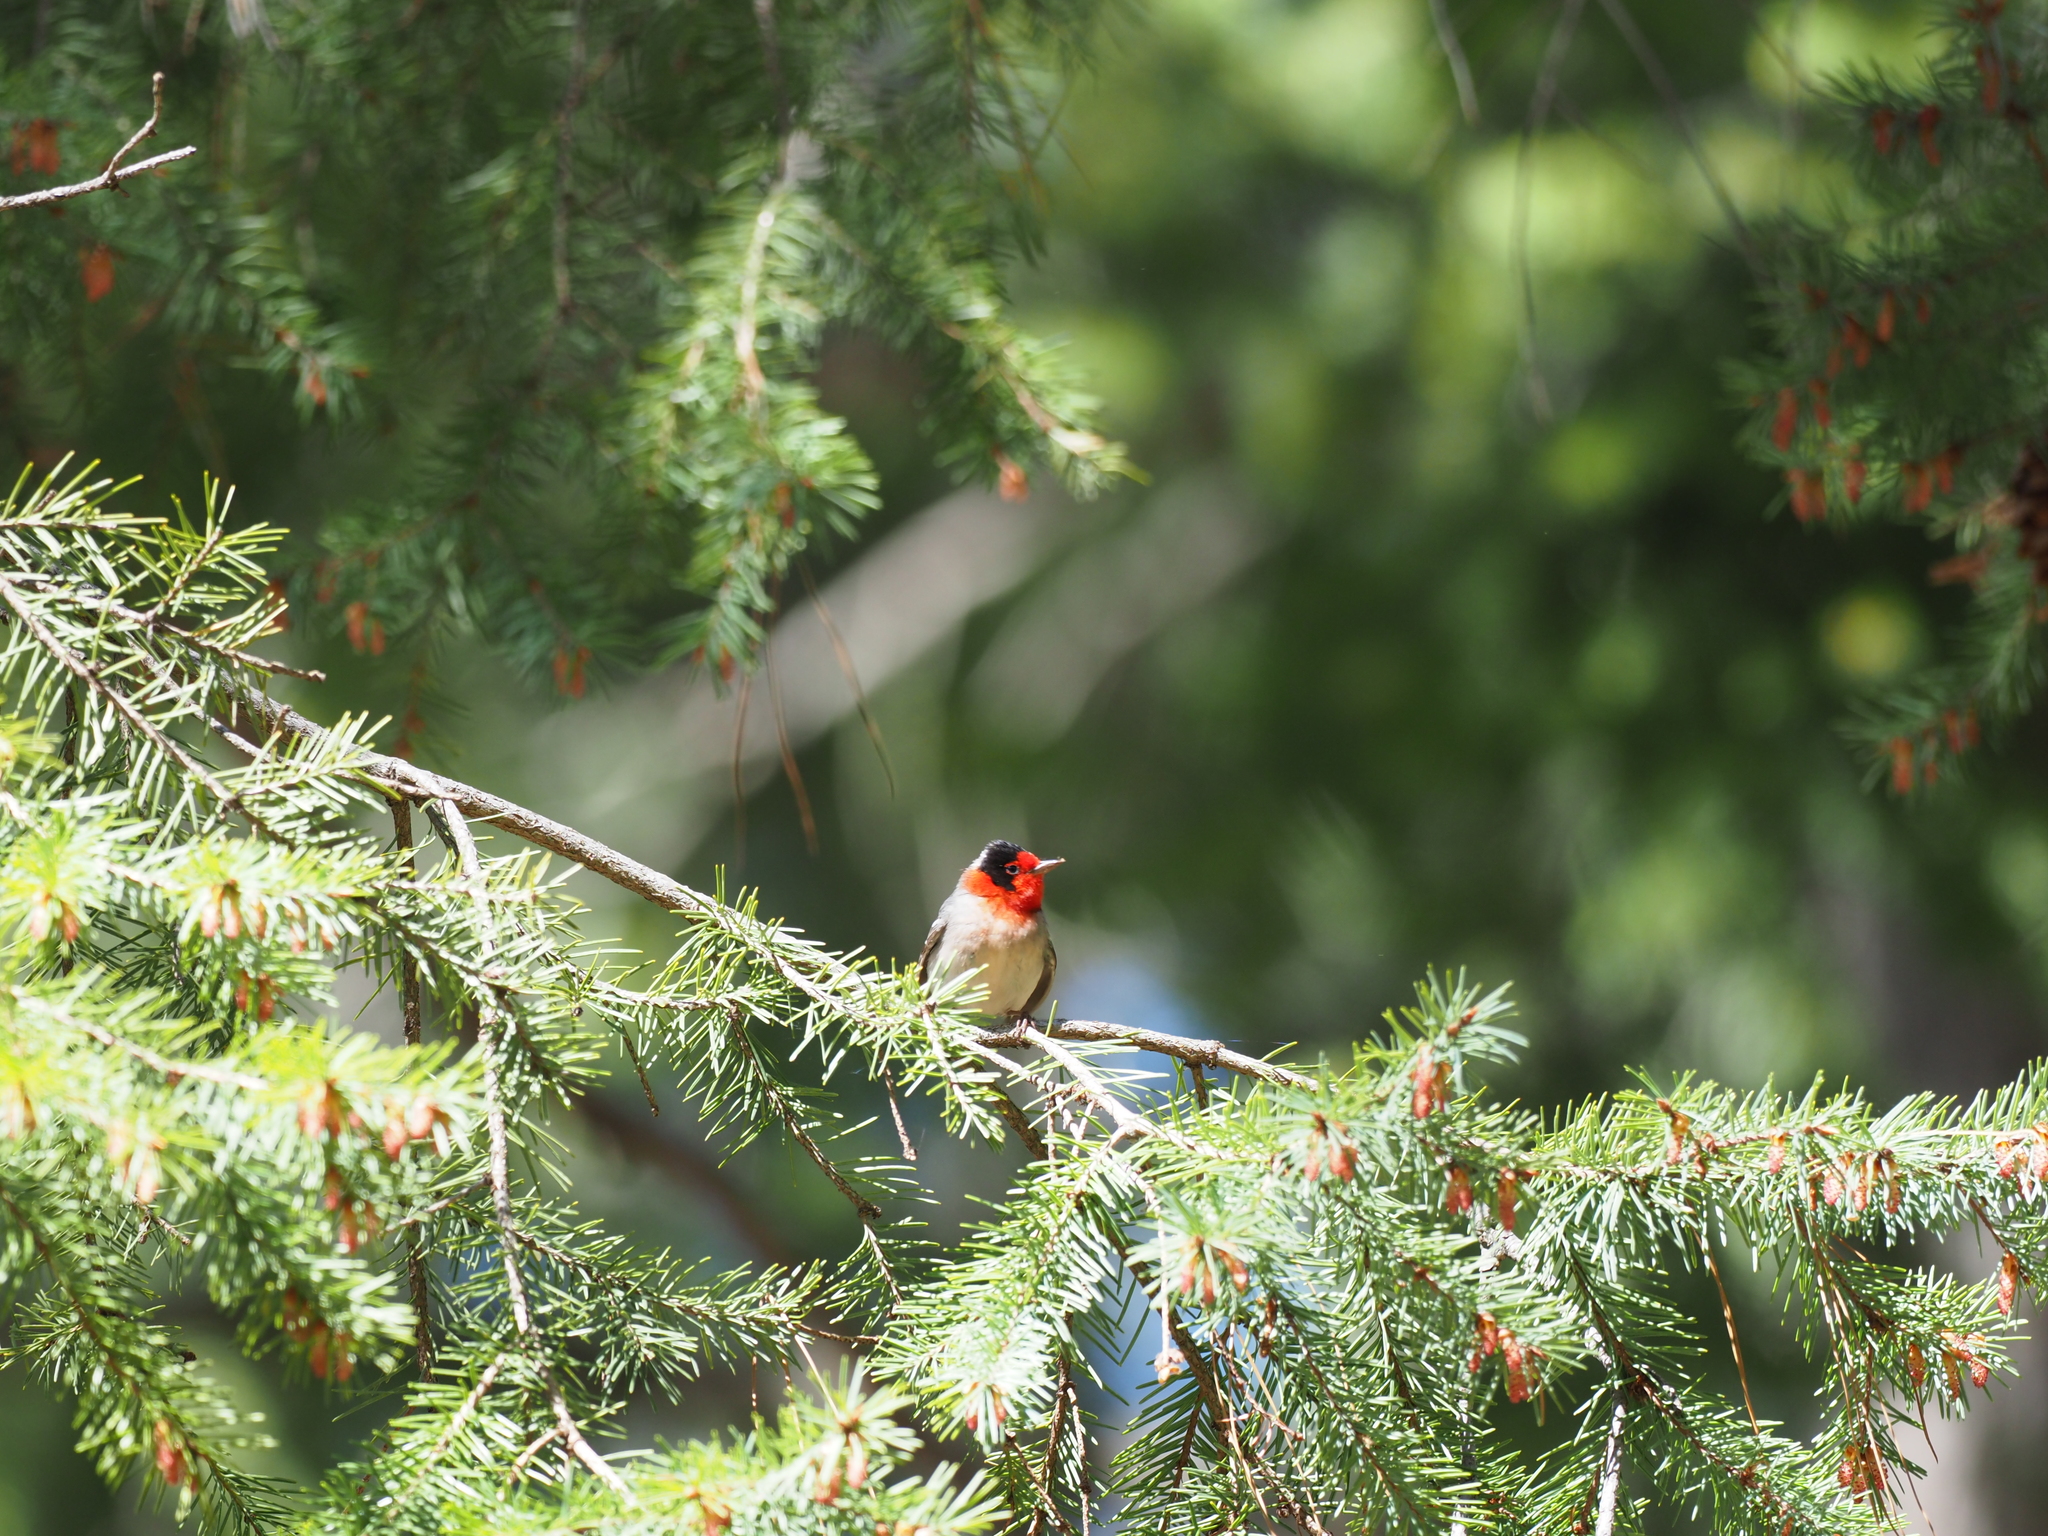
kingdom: Animalia
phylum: Chordata
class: Aves
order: Passeriformes
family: Parulidae
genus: Cardellina
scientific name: Cardellina rubrifrons
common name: Red-faced warbler
